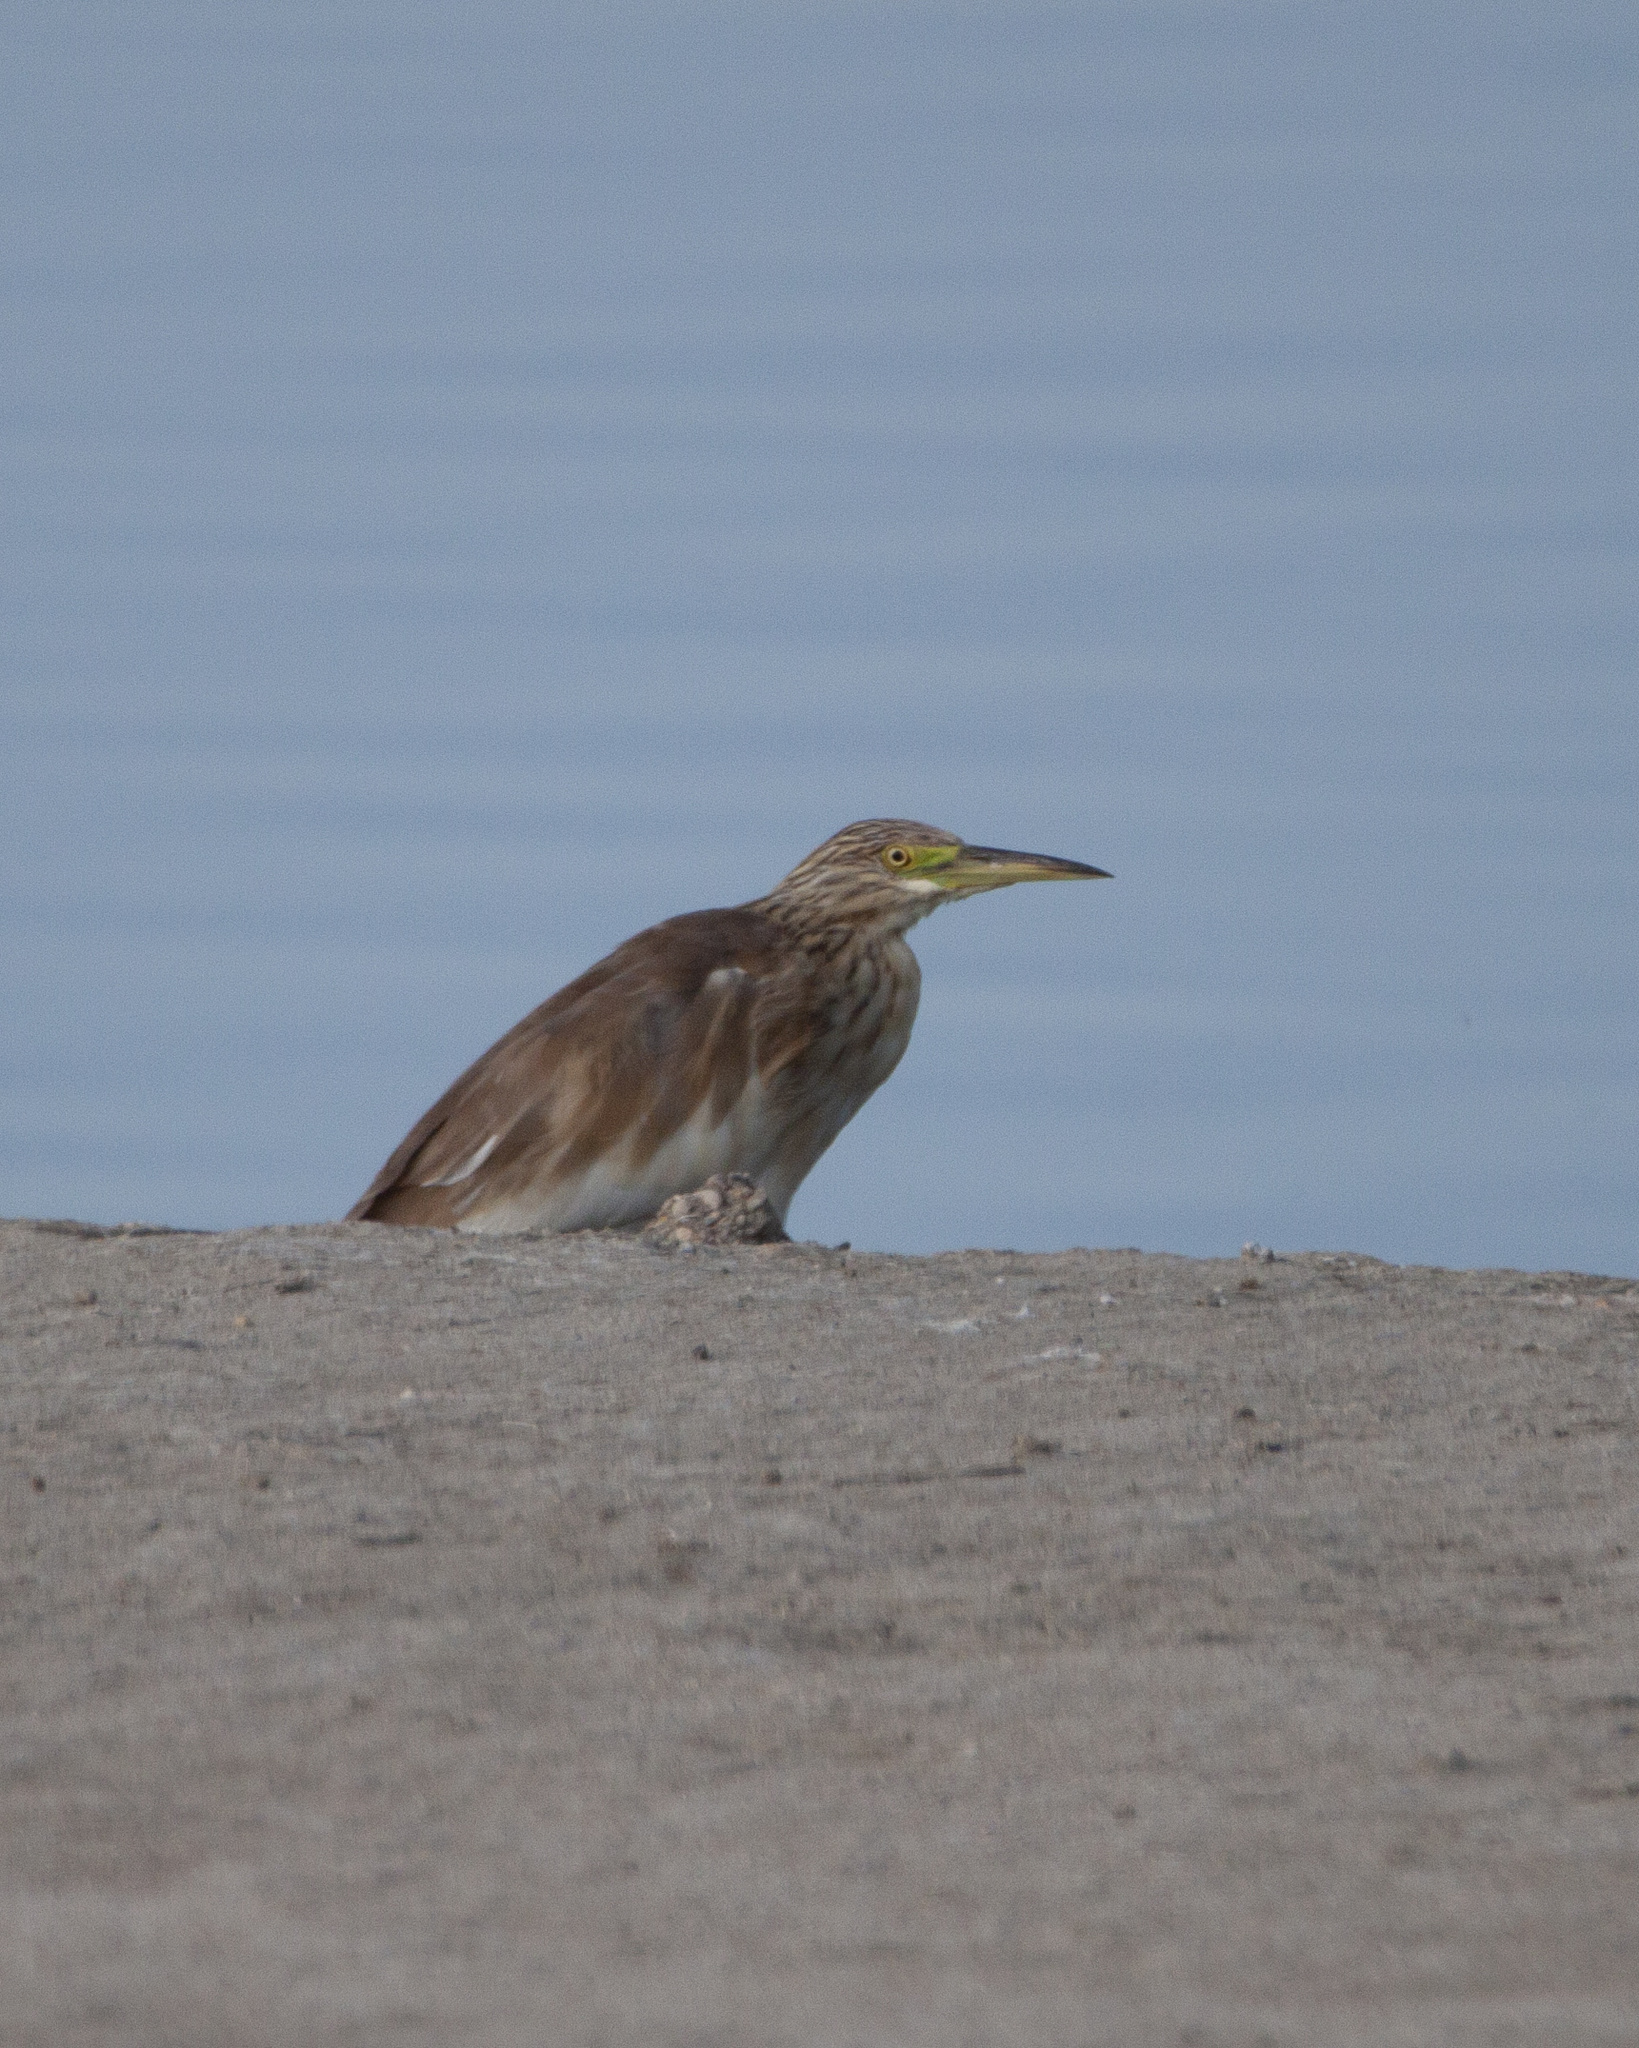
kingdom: Animalia
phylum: Chordata
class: Aves
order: Pelecaniformes
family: Ardeidae
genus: Ardeola
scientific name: Ardeola ralloides
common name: Squacco heron
